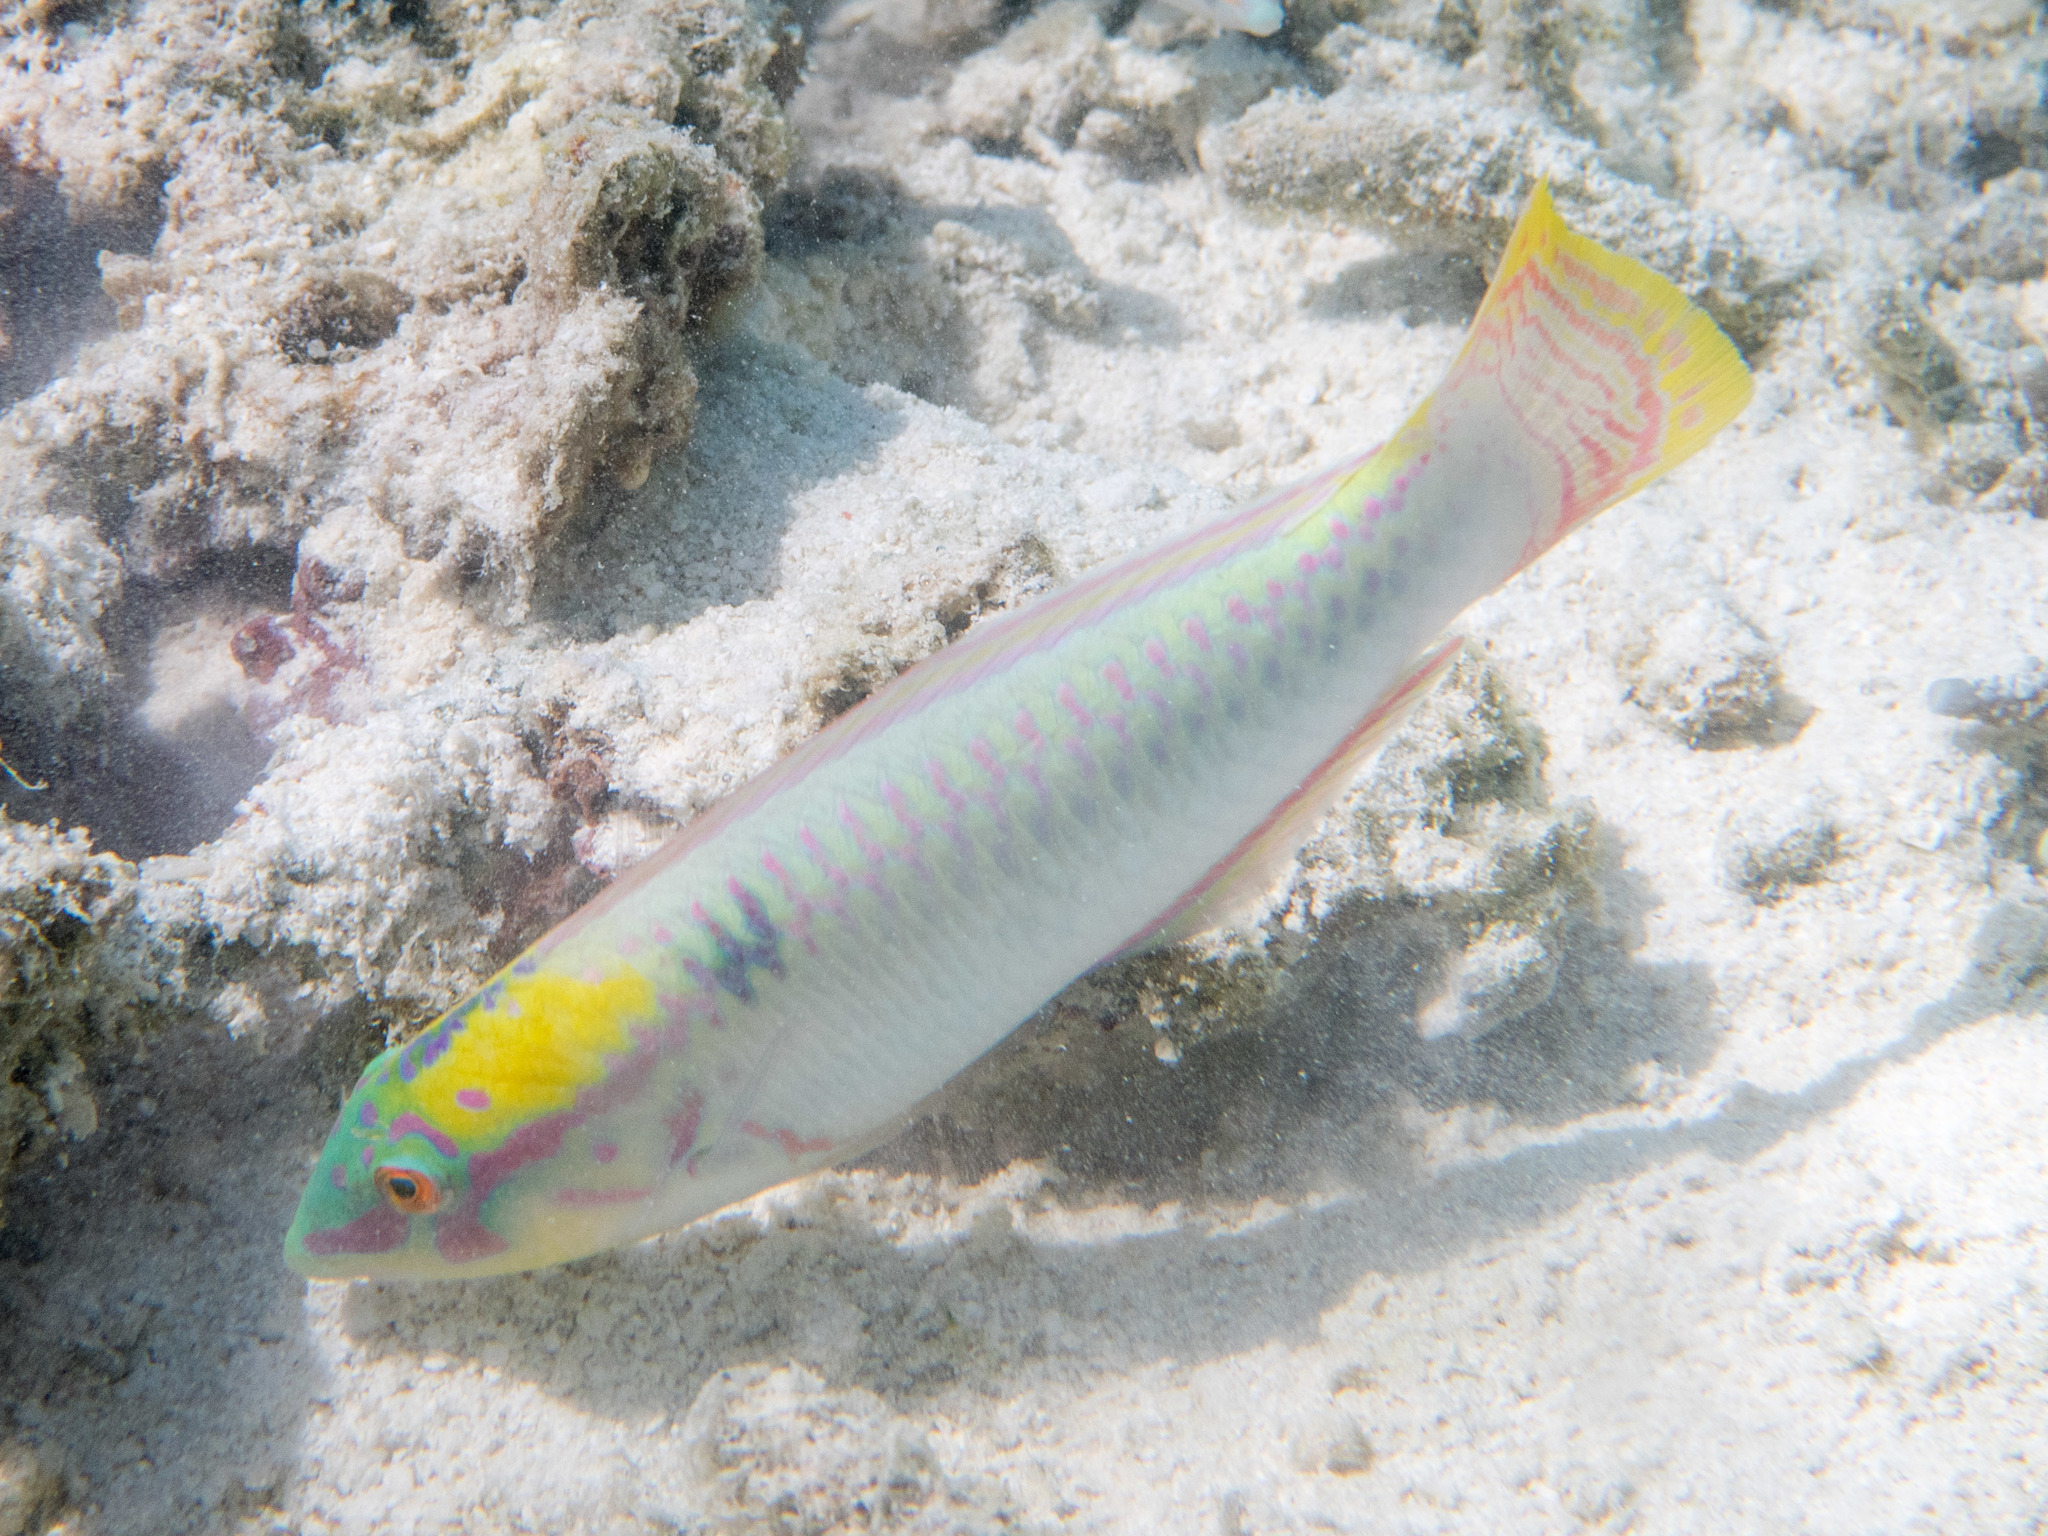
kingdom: Animalia
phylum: Chordata
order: Perciformes
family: Labridae
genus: Halichoeres
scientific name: Halichoeres scapularis
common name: Brownbanded wrasse
